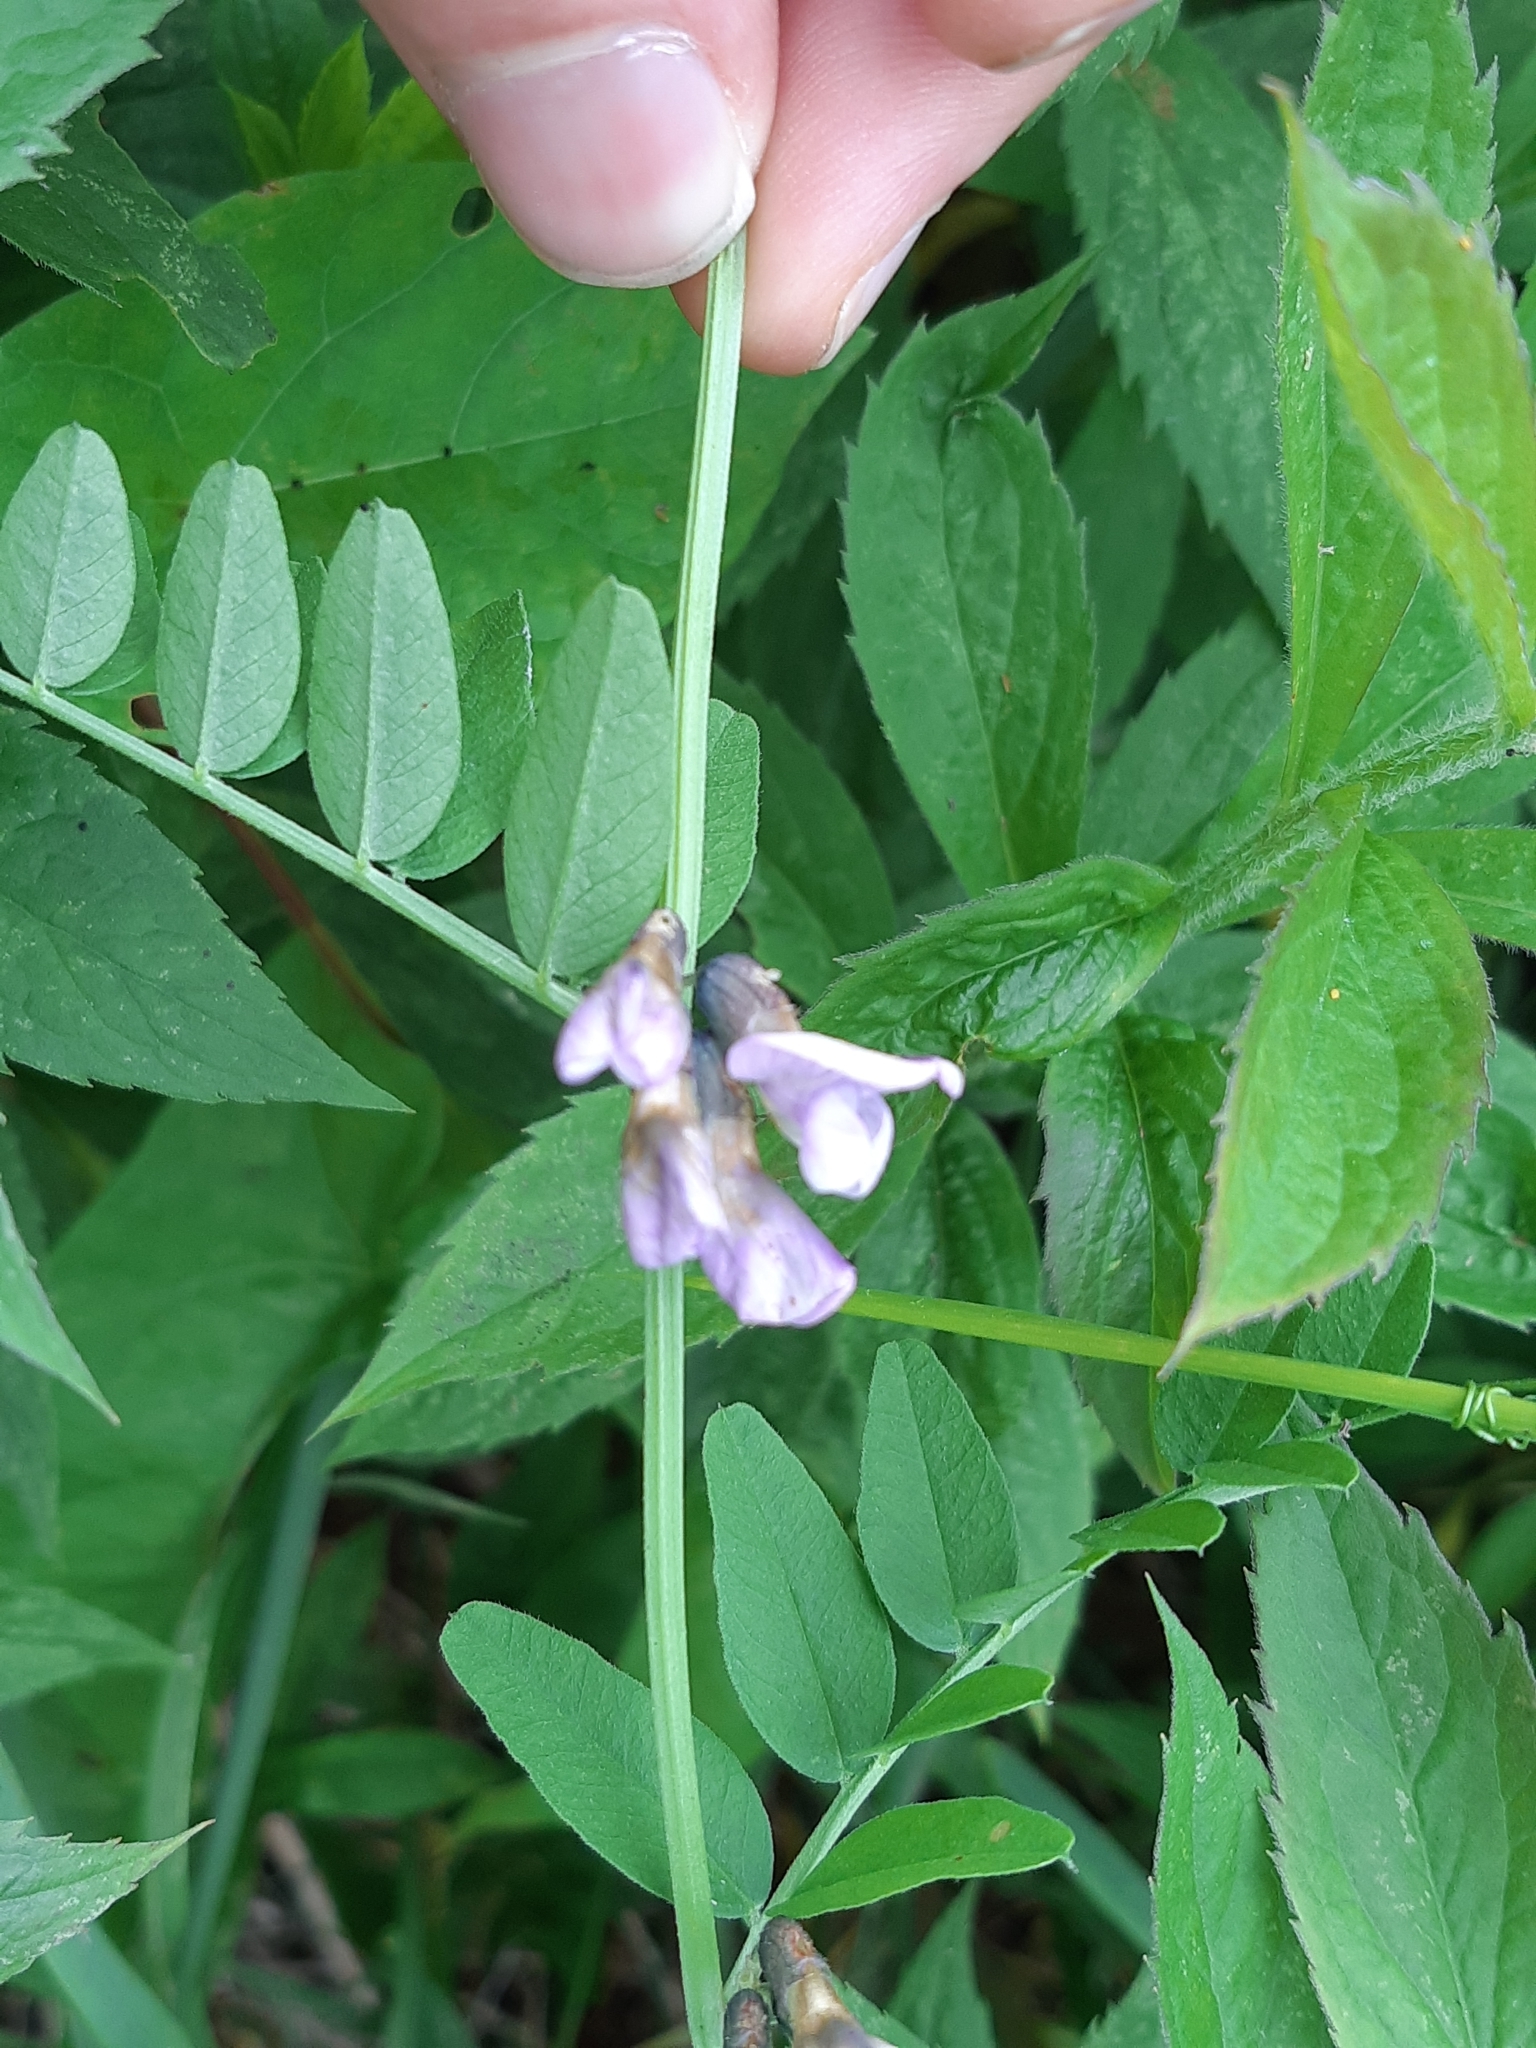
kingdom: Plantae
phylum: Tracheophyta
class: Magnoliopsida
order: Fabales
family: Fabaceae
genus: Vicia
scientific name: Vicia sepium
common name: Bush vetch
